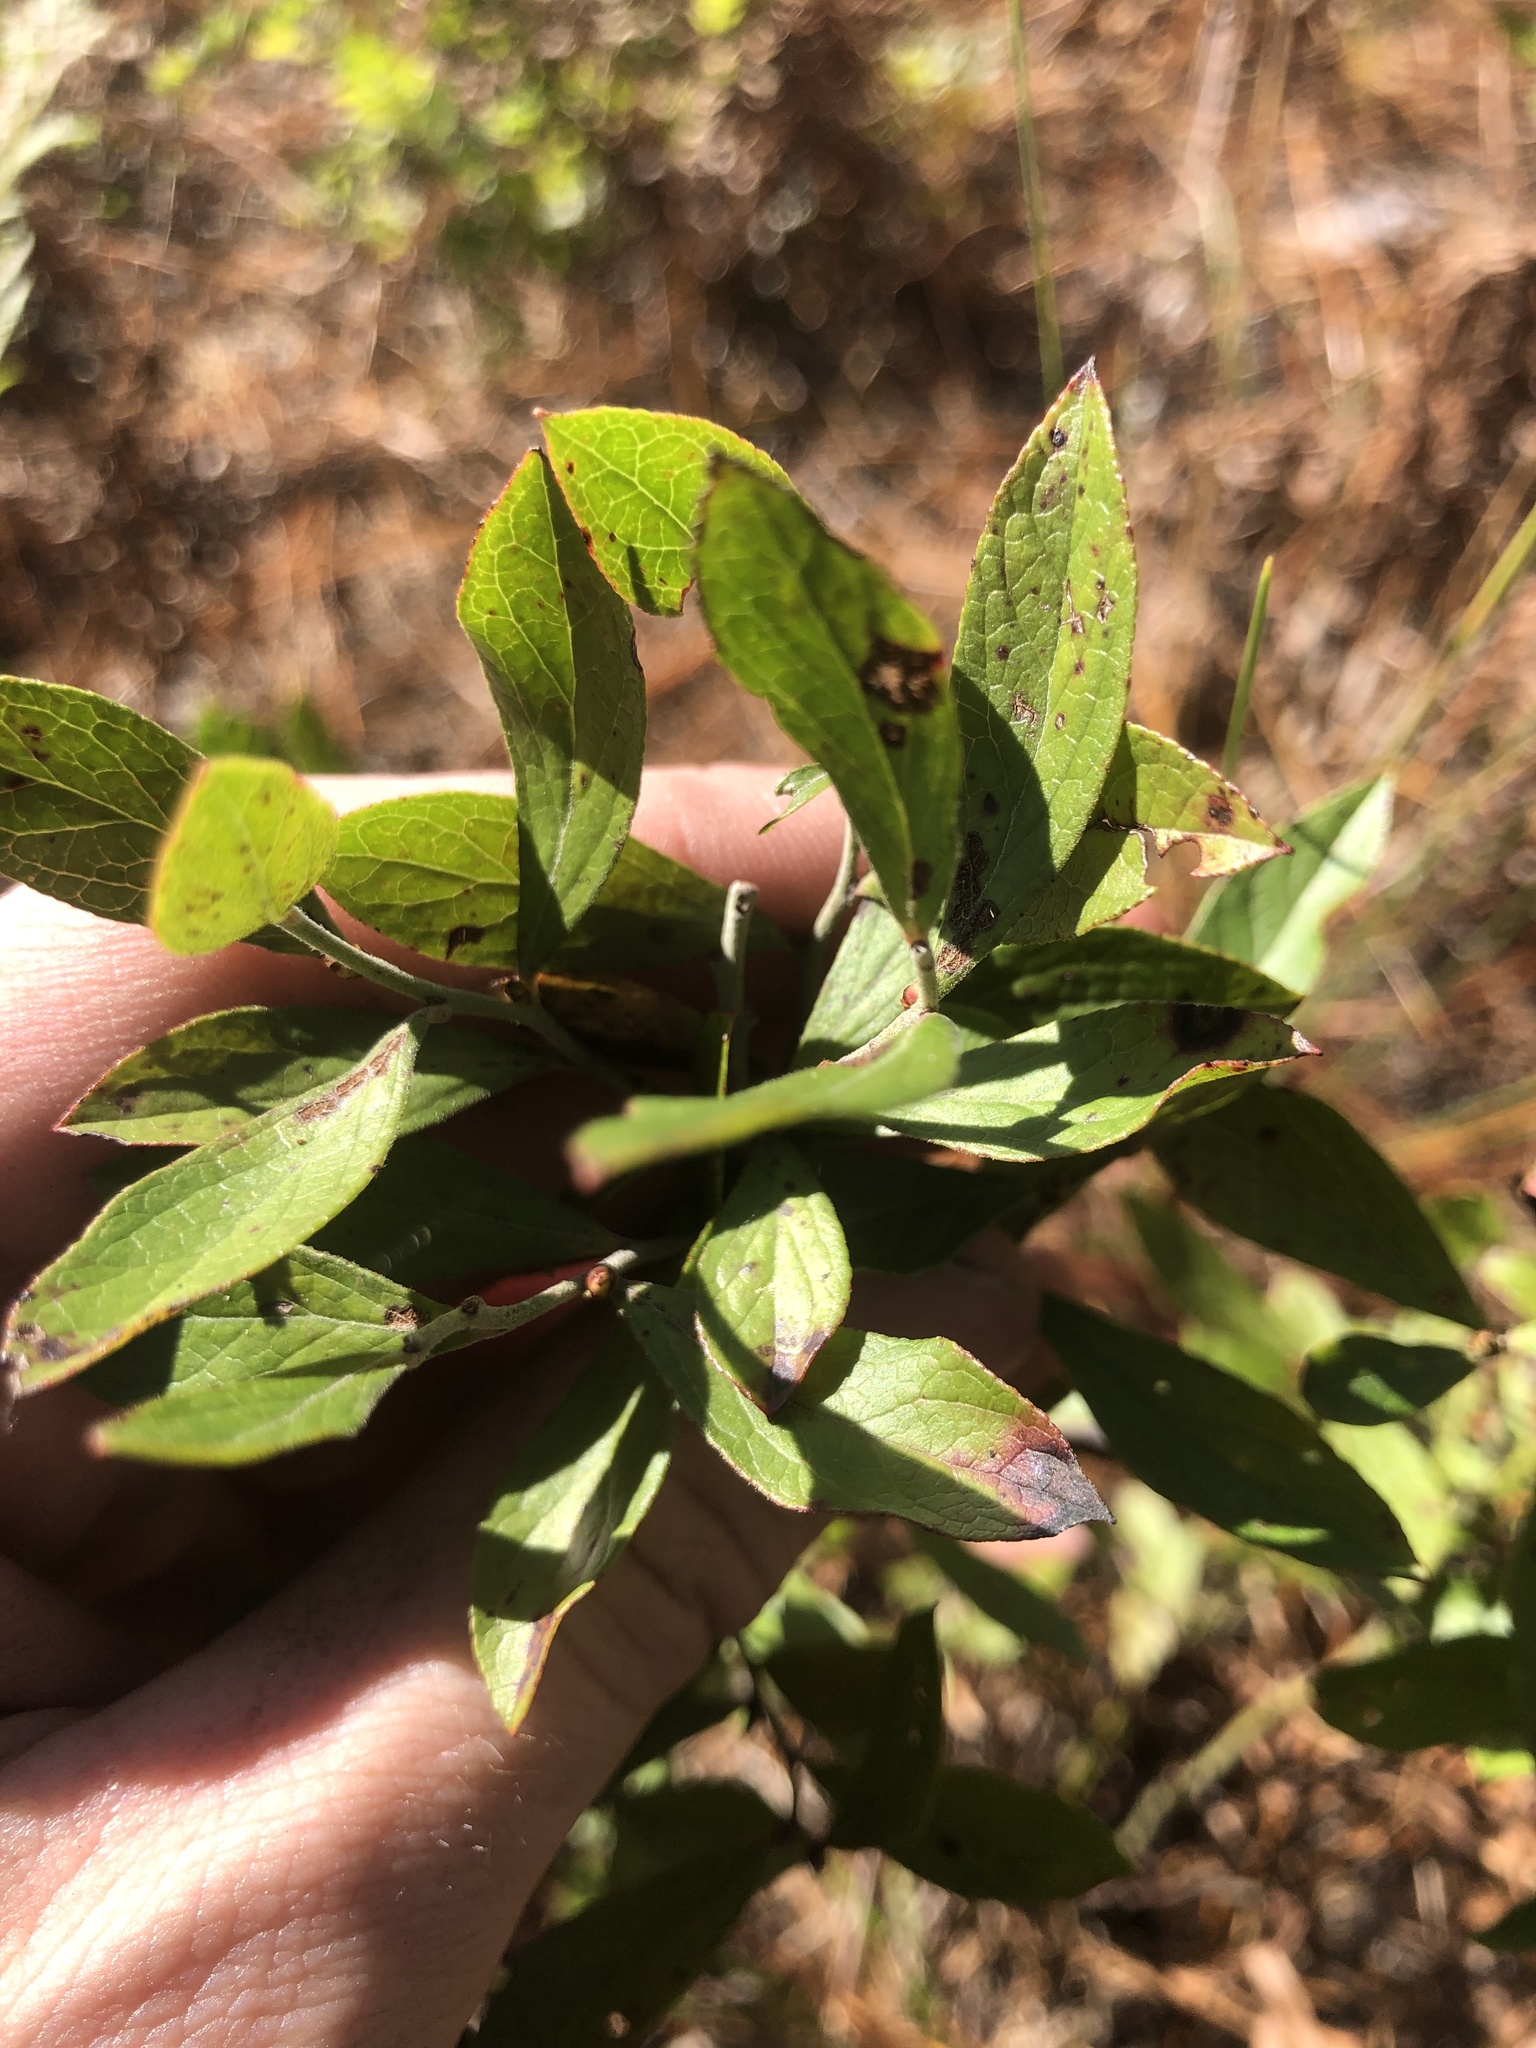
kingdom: Plantae
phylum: Tracheophyta
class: Magnoliopsida
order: Ericales
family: Ericaceae
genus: Gaylussacia
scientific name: Gaylussacia frondosa
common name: Dangleberry
